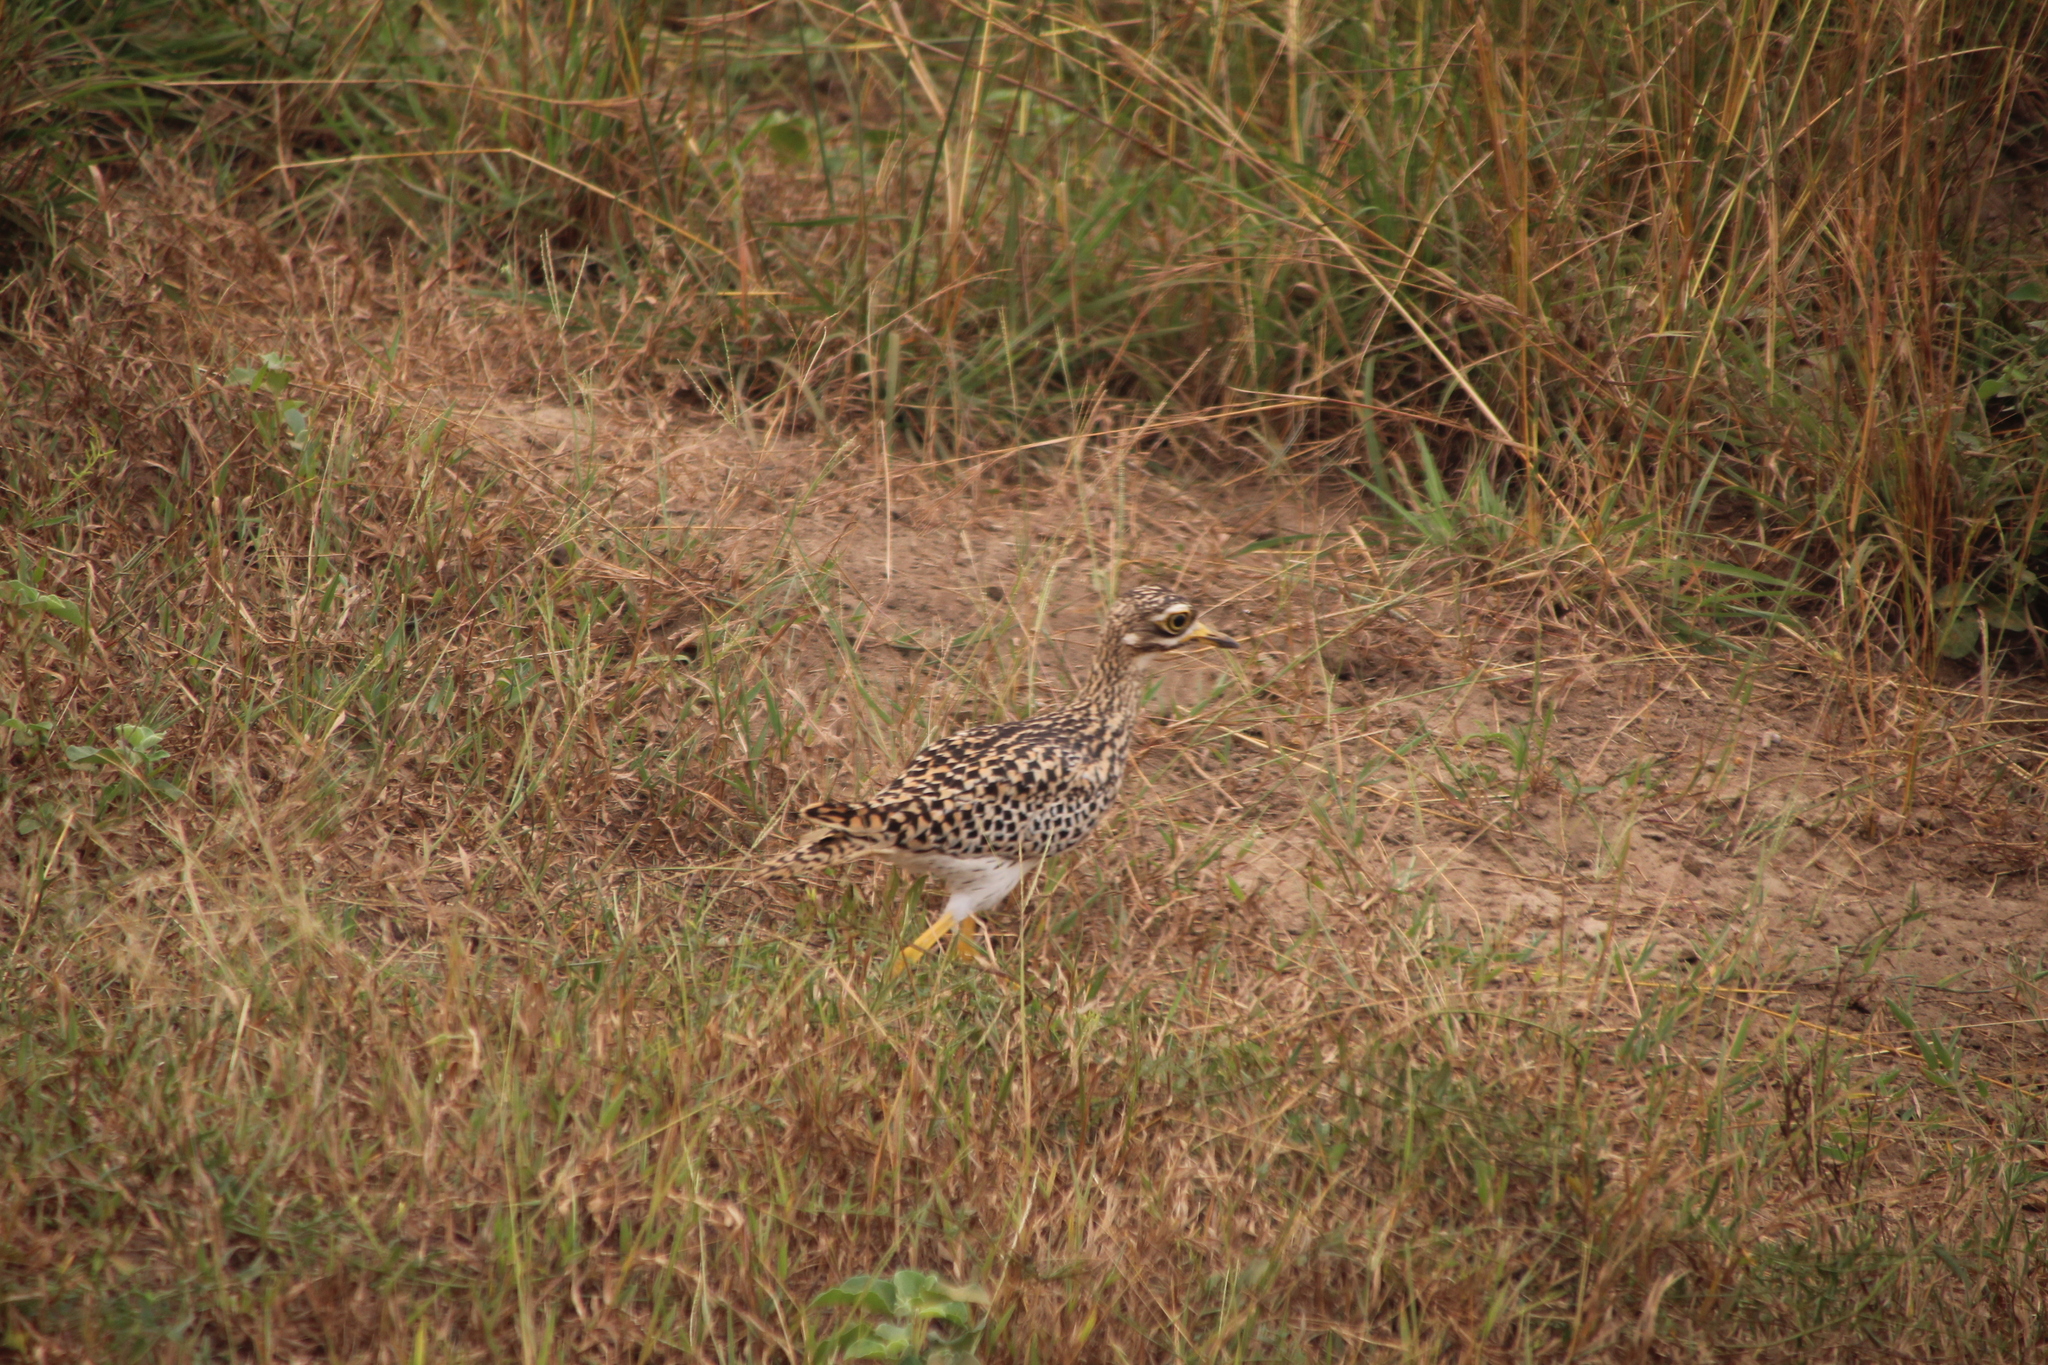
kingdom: Animalia
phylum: Chordata
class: Aves
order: Charadriiformes
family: Burhinidae
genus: Burhinus
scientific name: Burhinus capensis
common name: Spotted thick-knee
